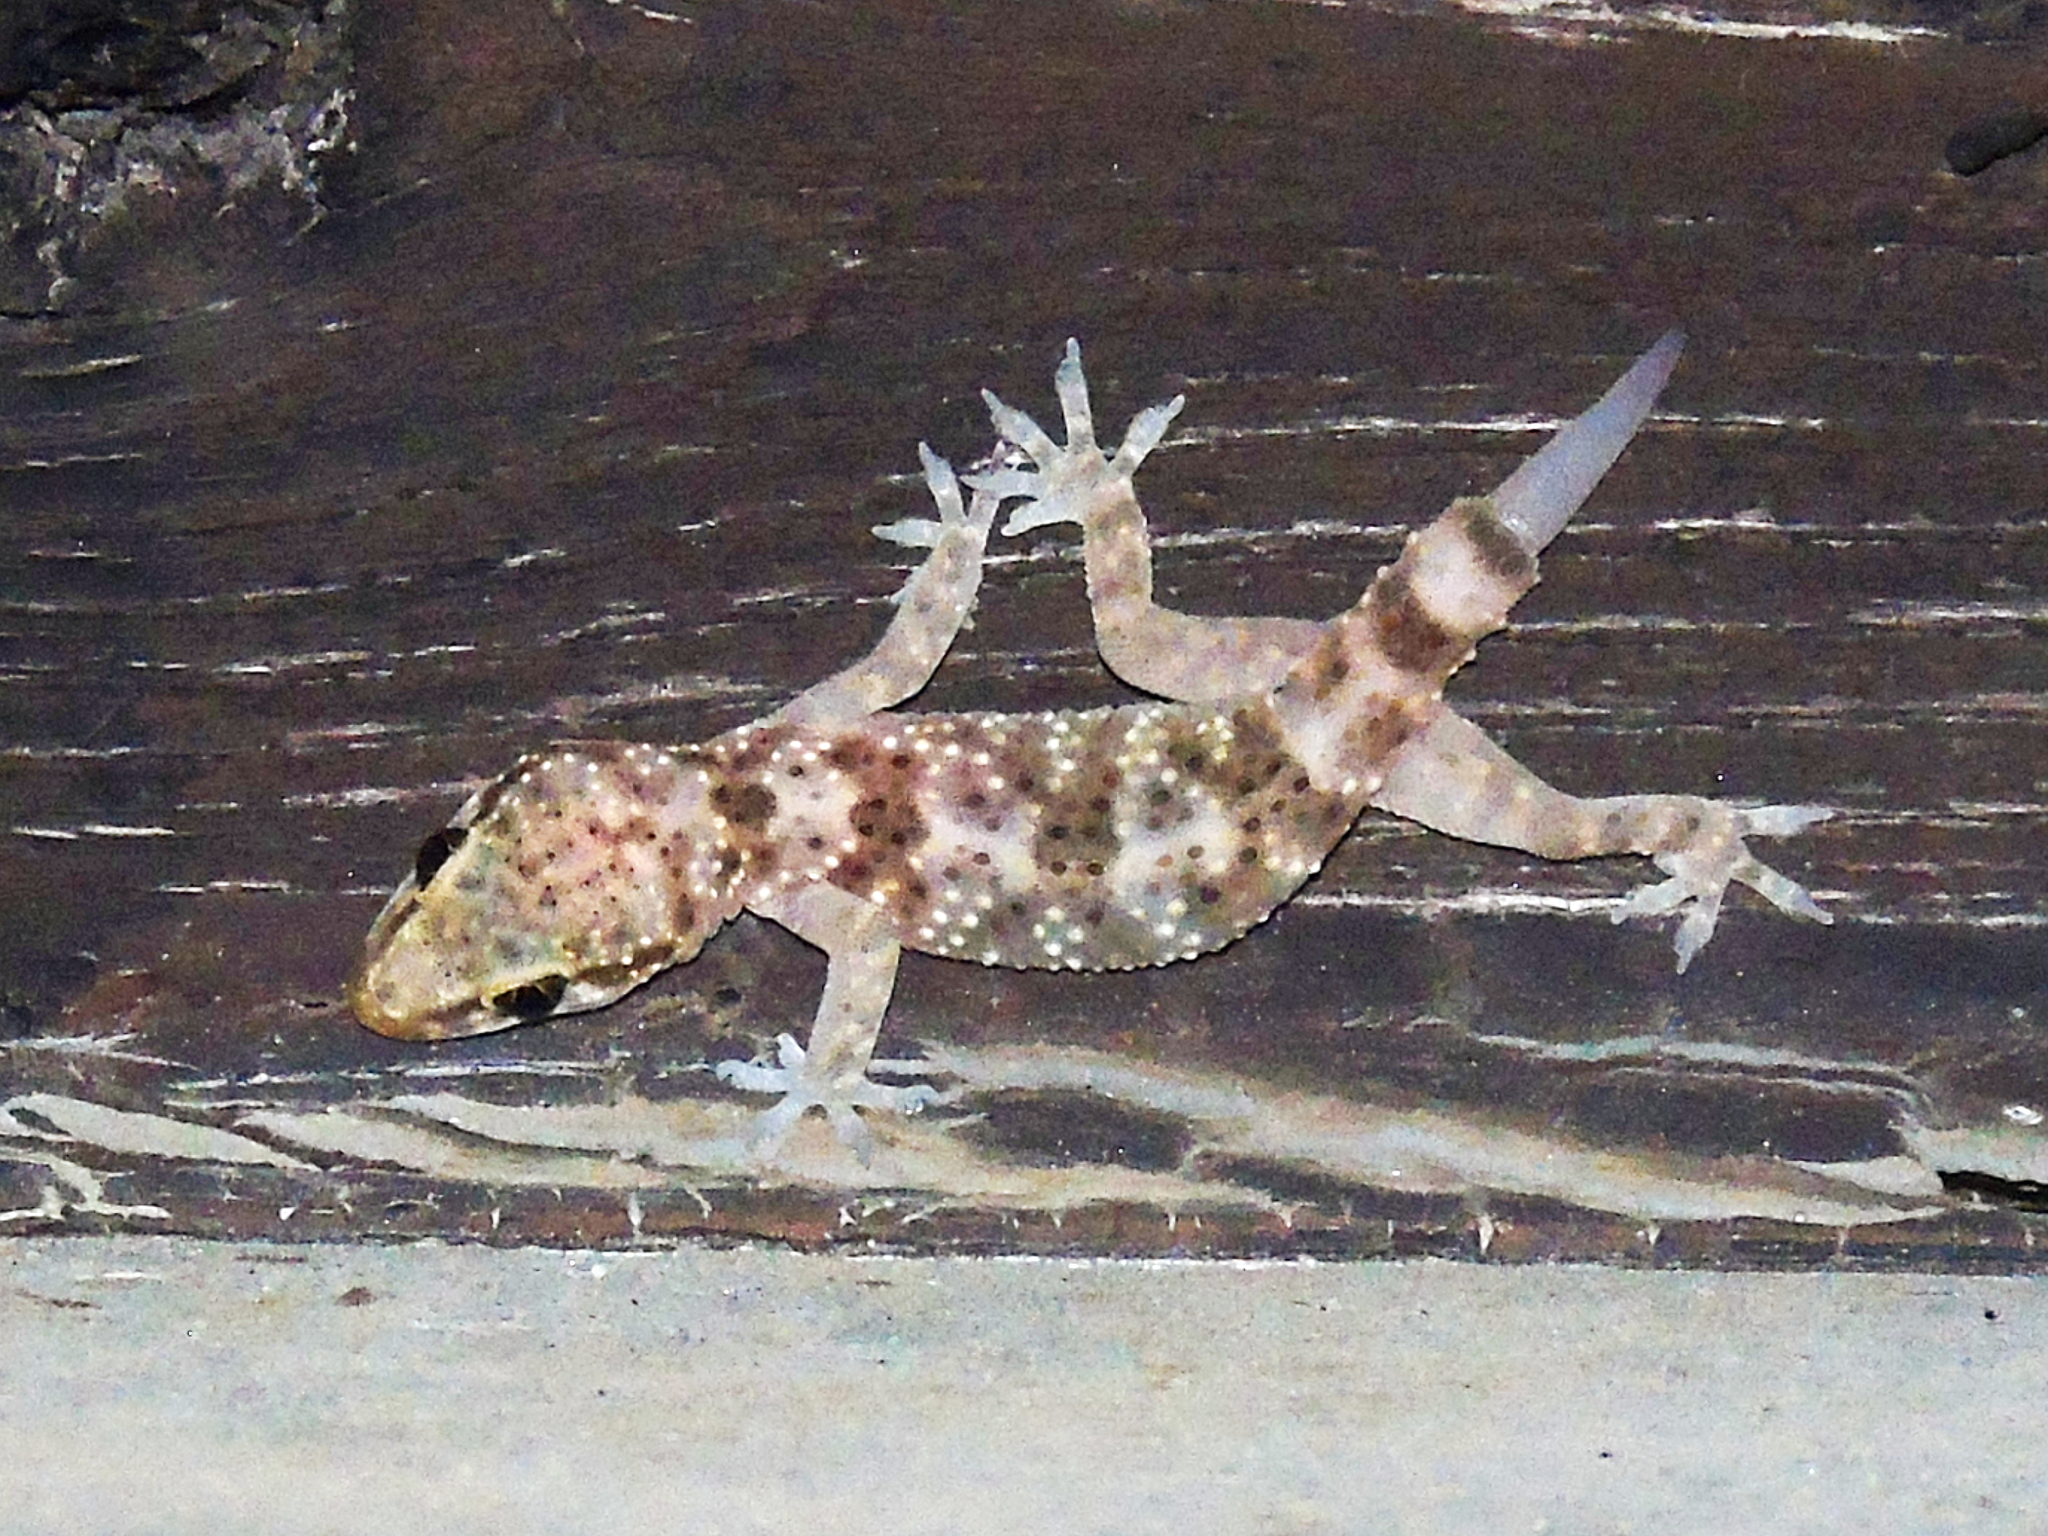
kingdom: Animalia
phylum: Chordata
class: Squamata
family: Gekkonidae
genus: Hemidactylus
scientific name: Hemidactylus turcicus
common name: Turkish gecko
